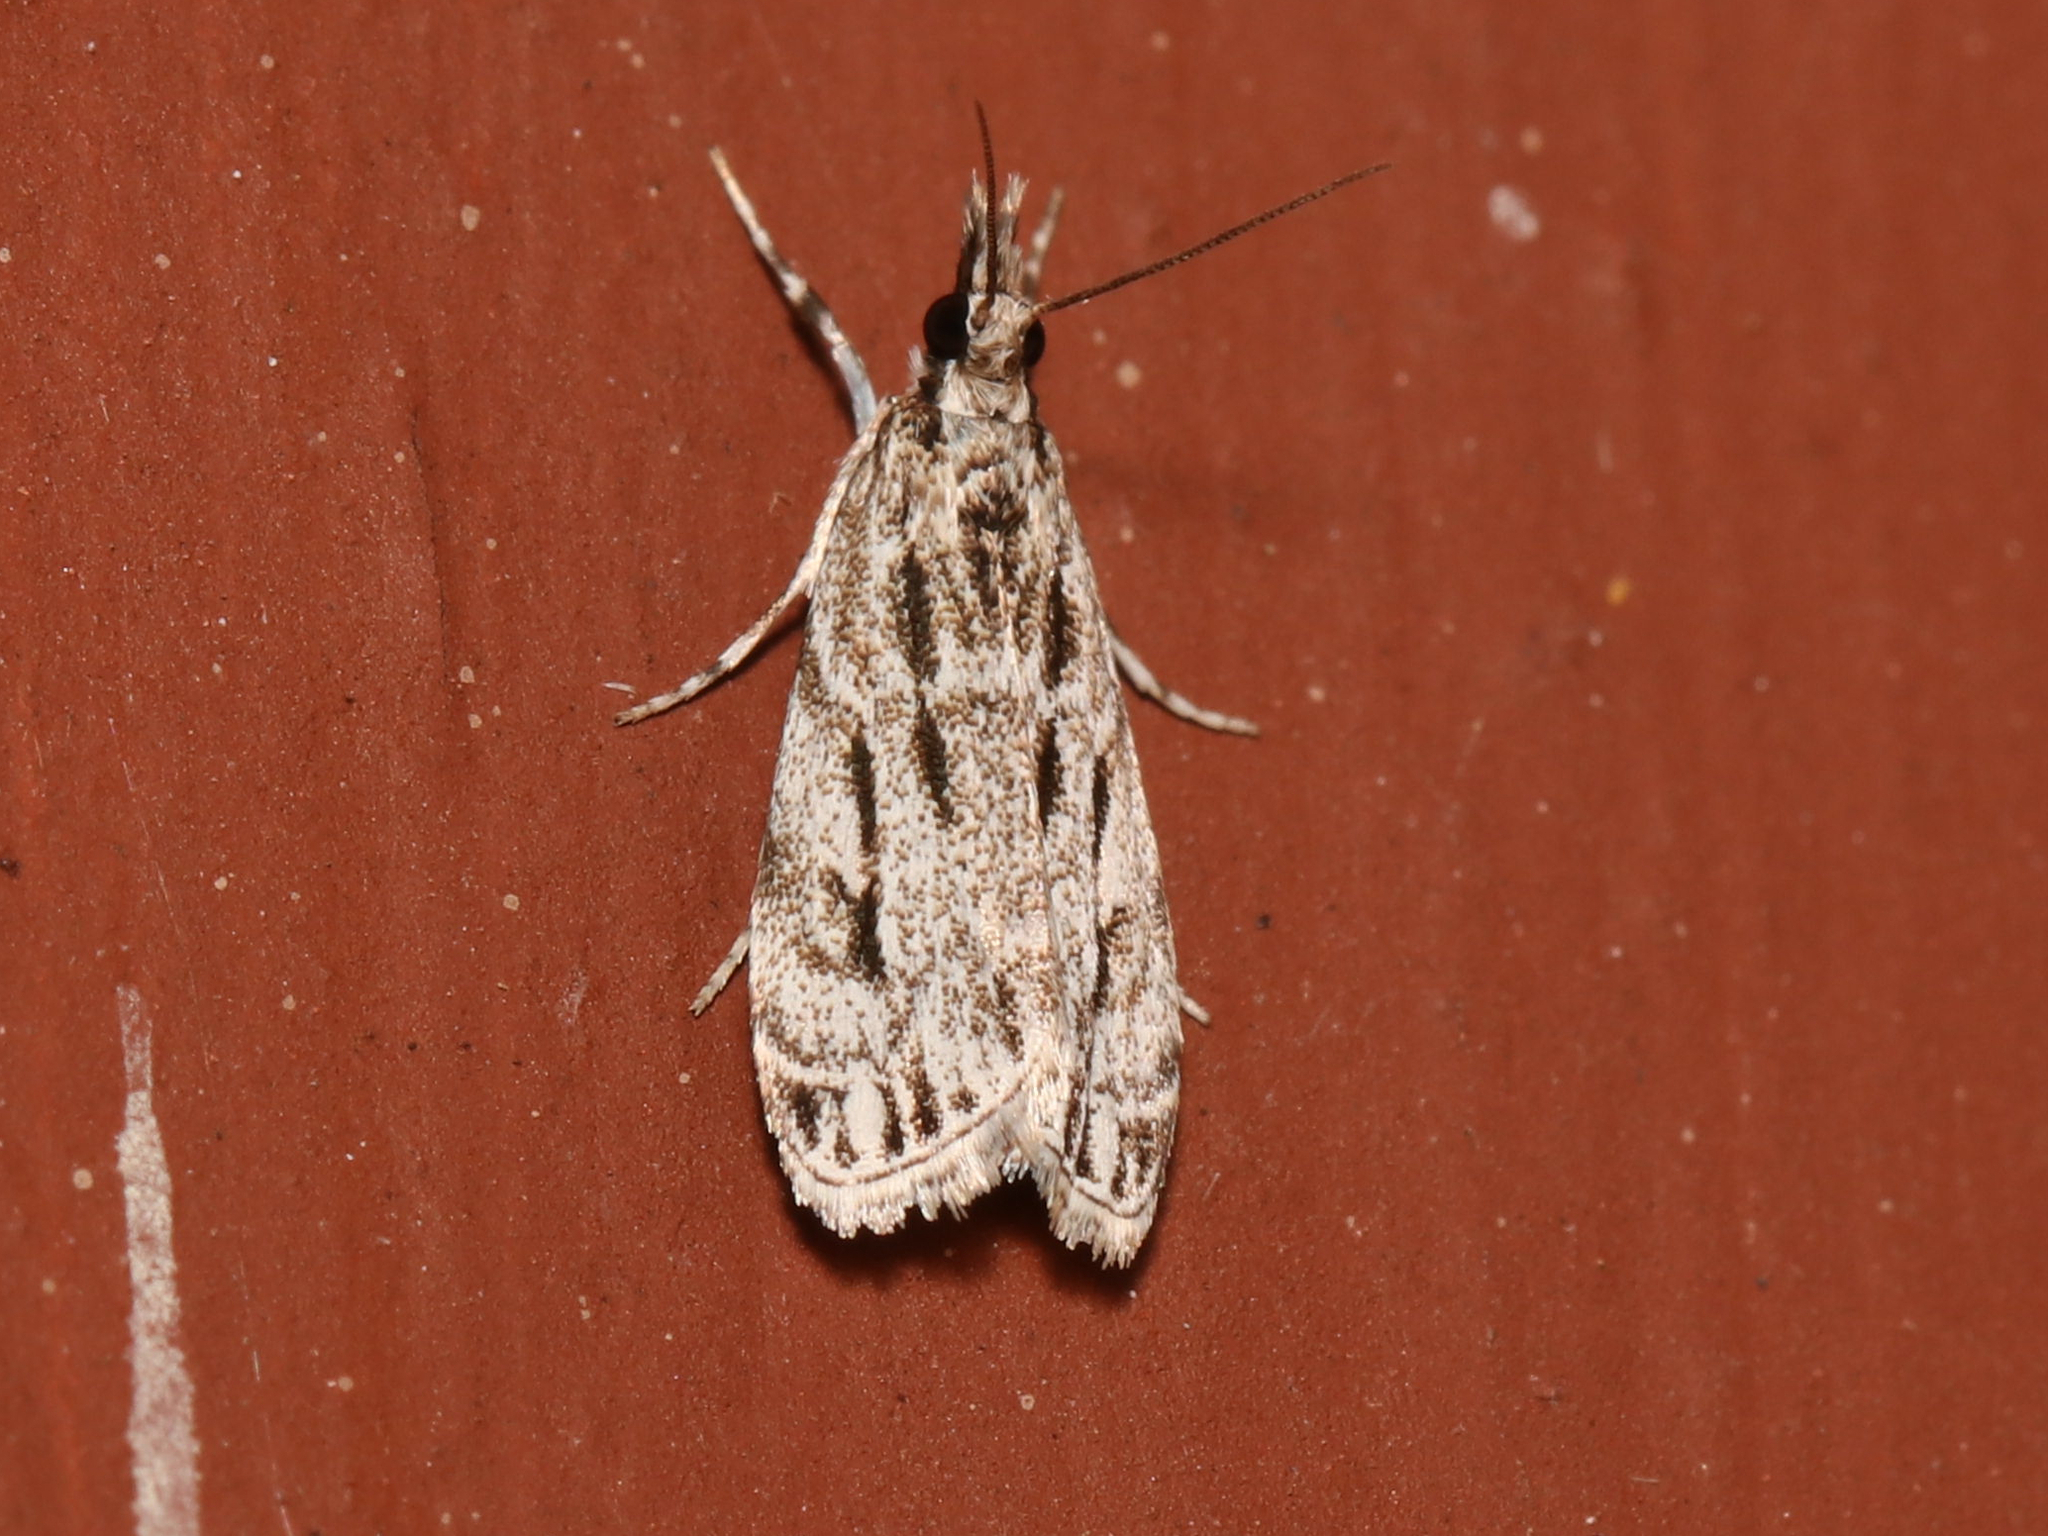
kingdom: Animalia
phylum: Arthropoda
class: Insecta
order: Lepidoptera
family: Crambidae
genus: Eudonia
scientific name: Eudonia strigalis
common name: Striped eudonia moth
